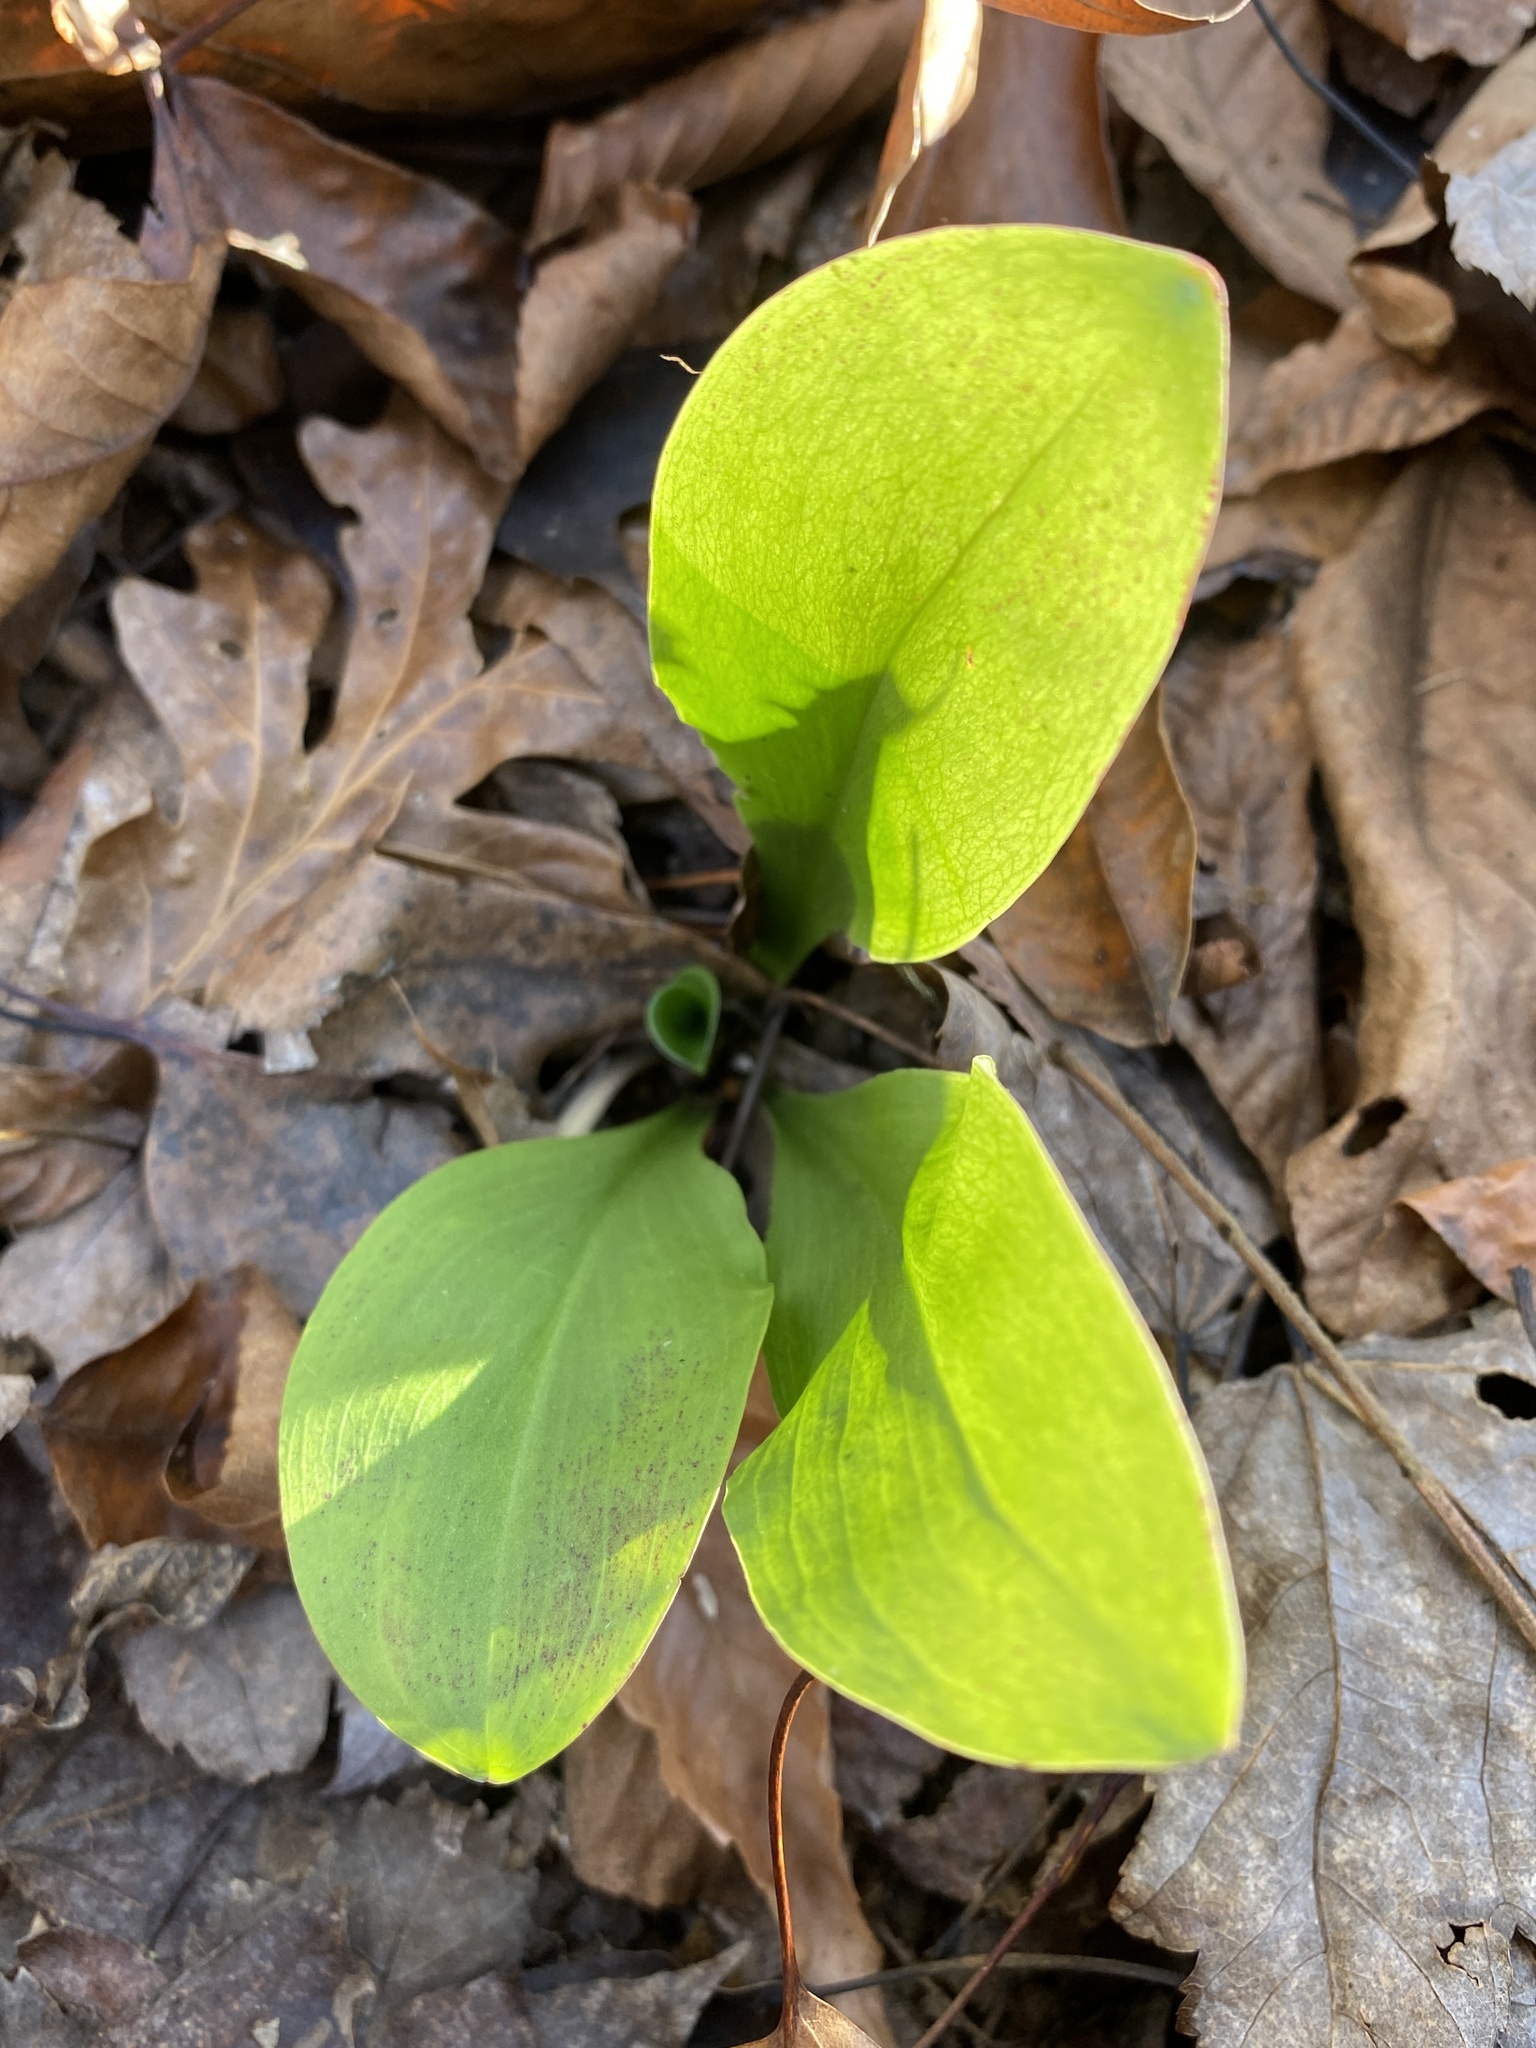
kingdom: Plantae
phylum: Tracheophyta
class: Liliopsida
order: Liliales
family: Melanthiaceae
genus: Chamaelirium
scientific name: Chamaelirium luteum
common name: Fairy-wand
